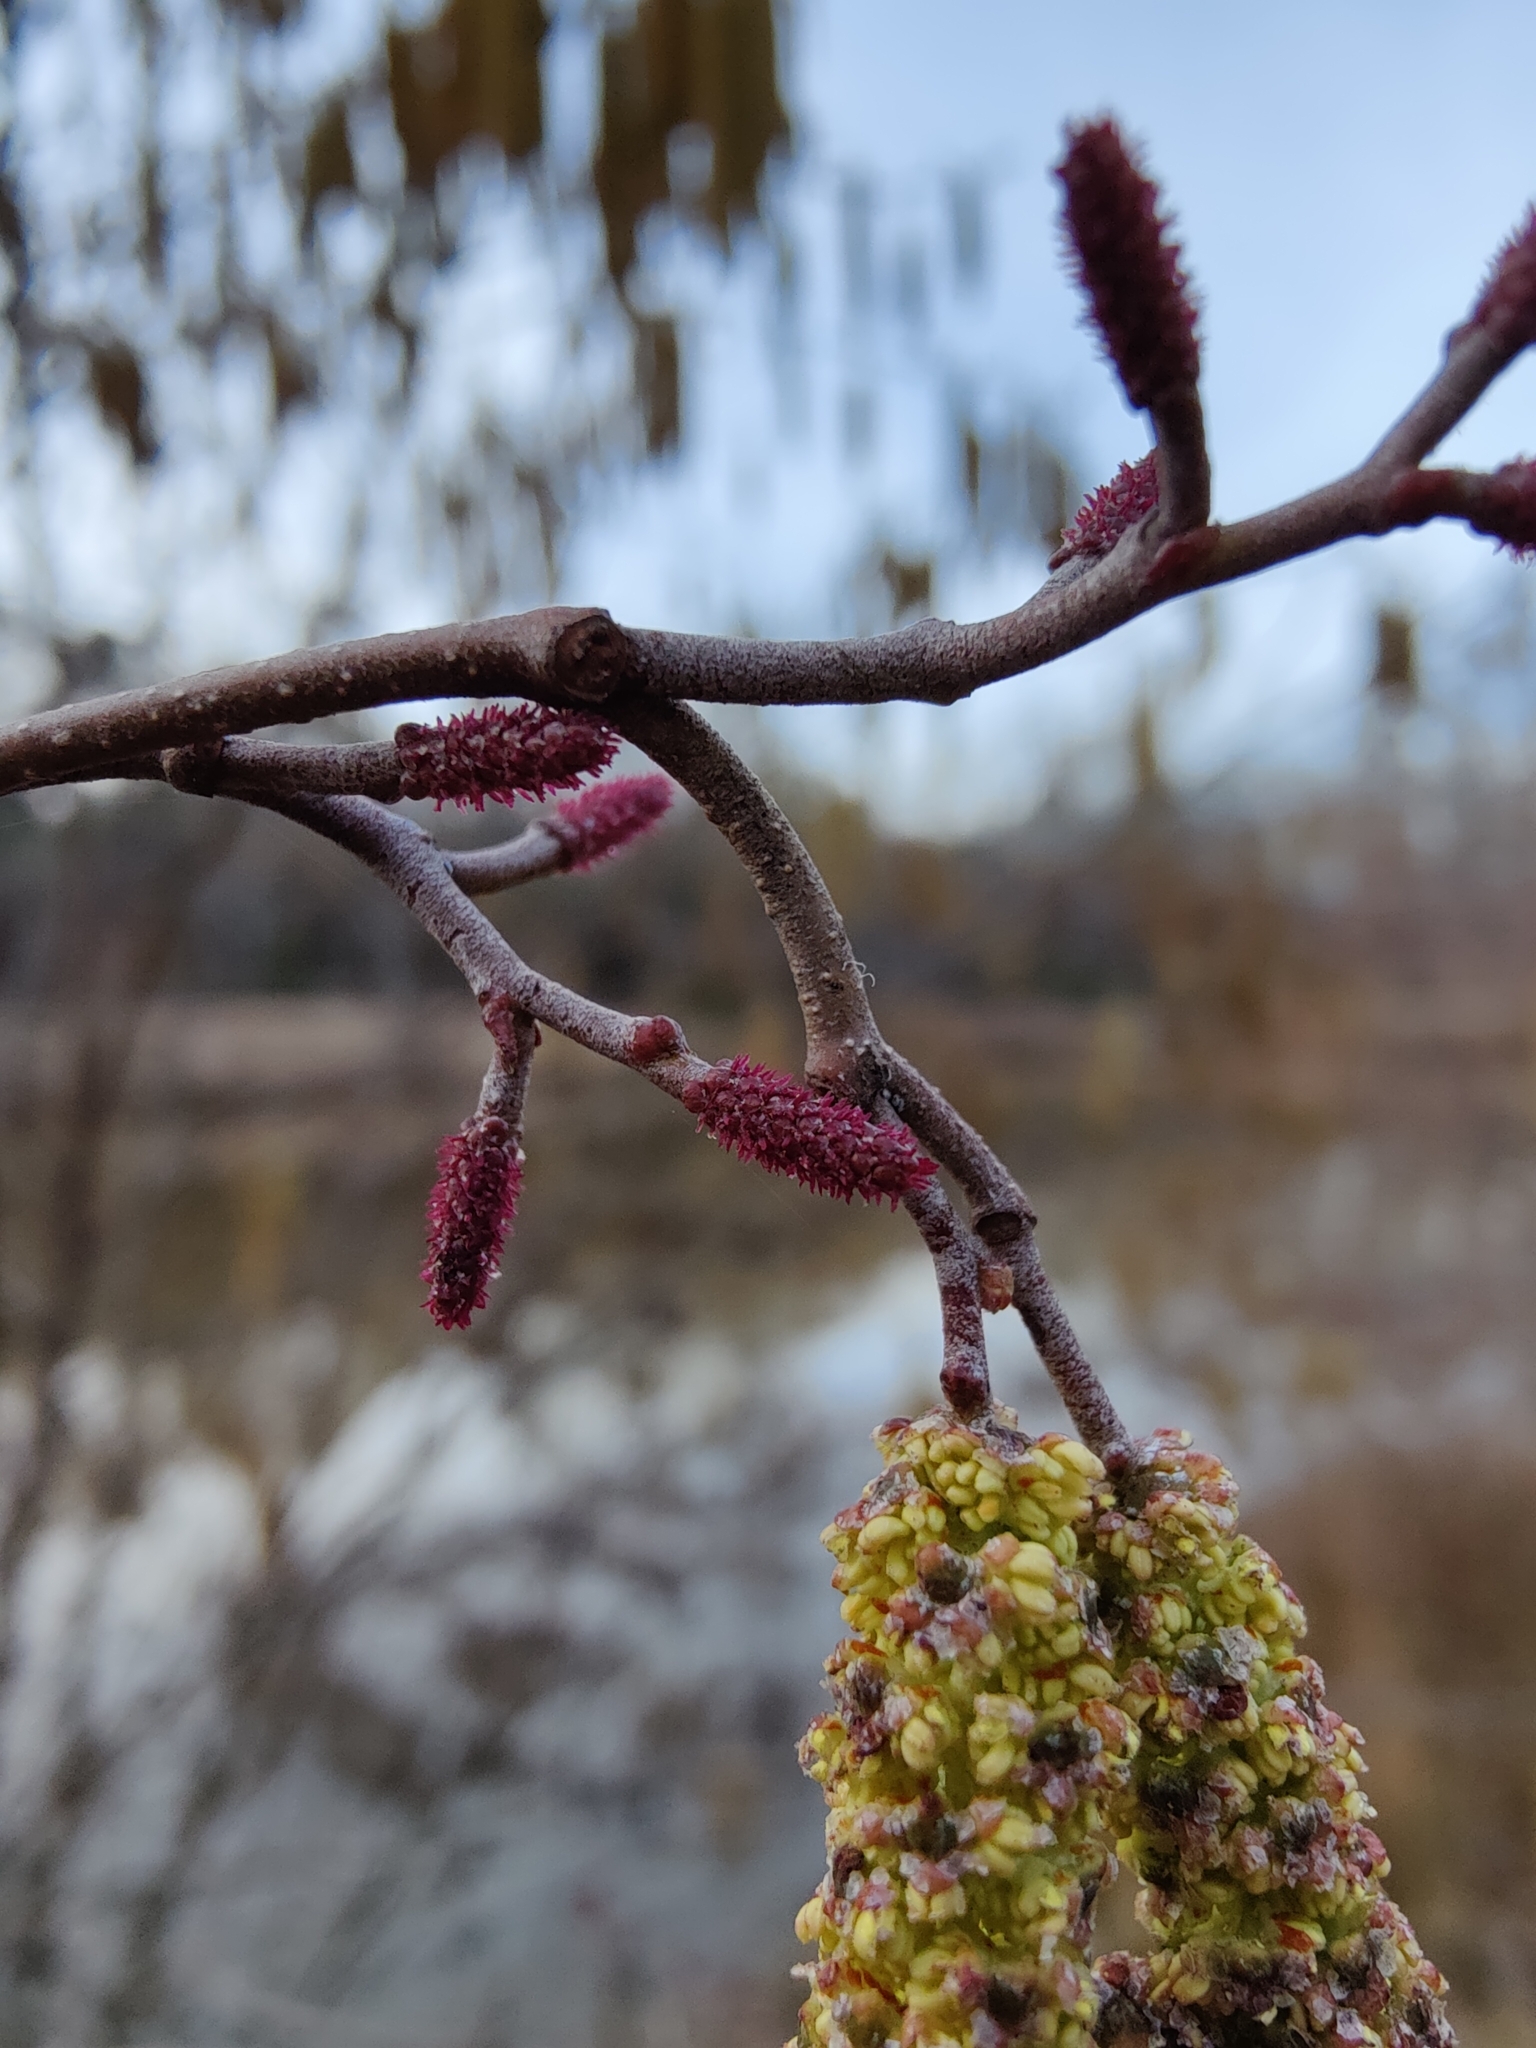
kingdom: Plantae
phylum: Tracheophyta
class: Magnoliopsida
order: Fagales
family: Betulaceae
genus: Alnus
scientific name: Alnus serrulata
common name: Hazel alder
